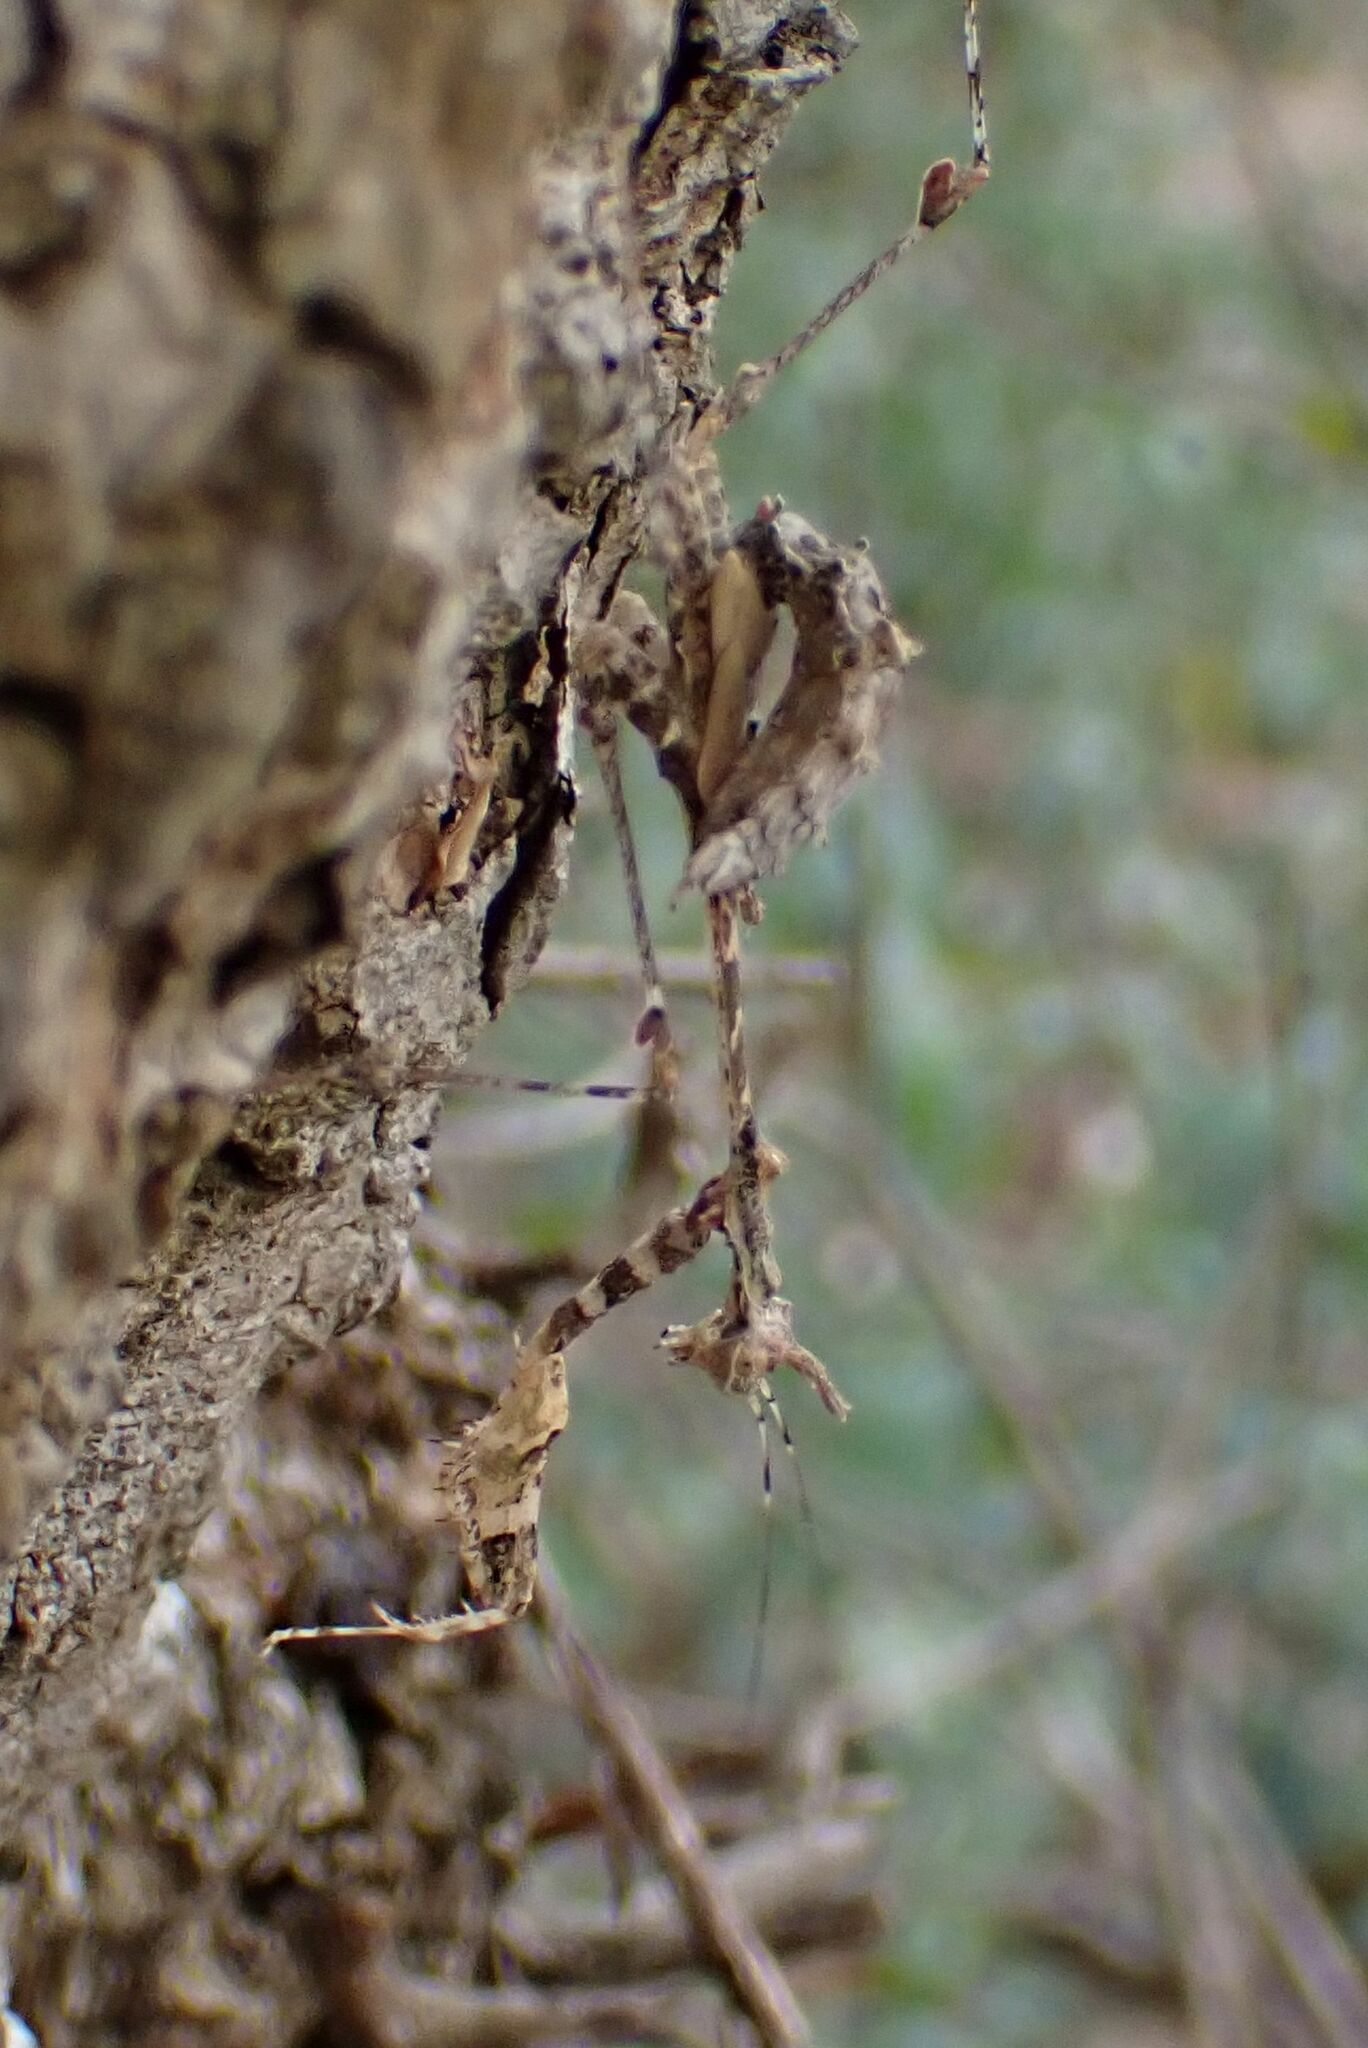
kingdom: Animalia
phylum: Arthropoda
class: Insecta
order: Mantodea
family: Hymenopodidae
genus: Sibylla
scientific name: Sibylla pretiosa
